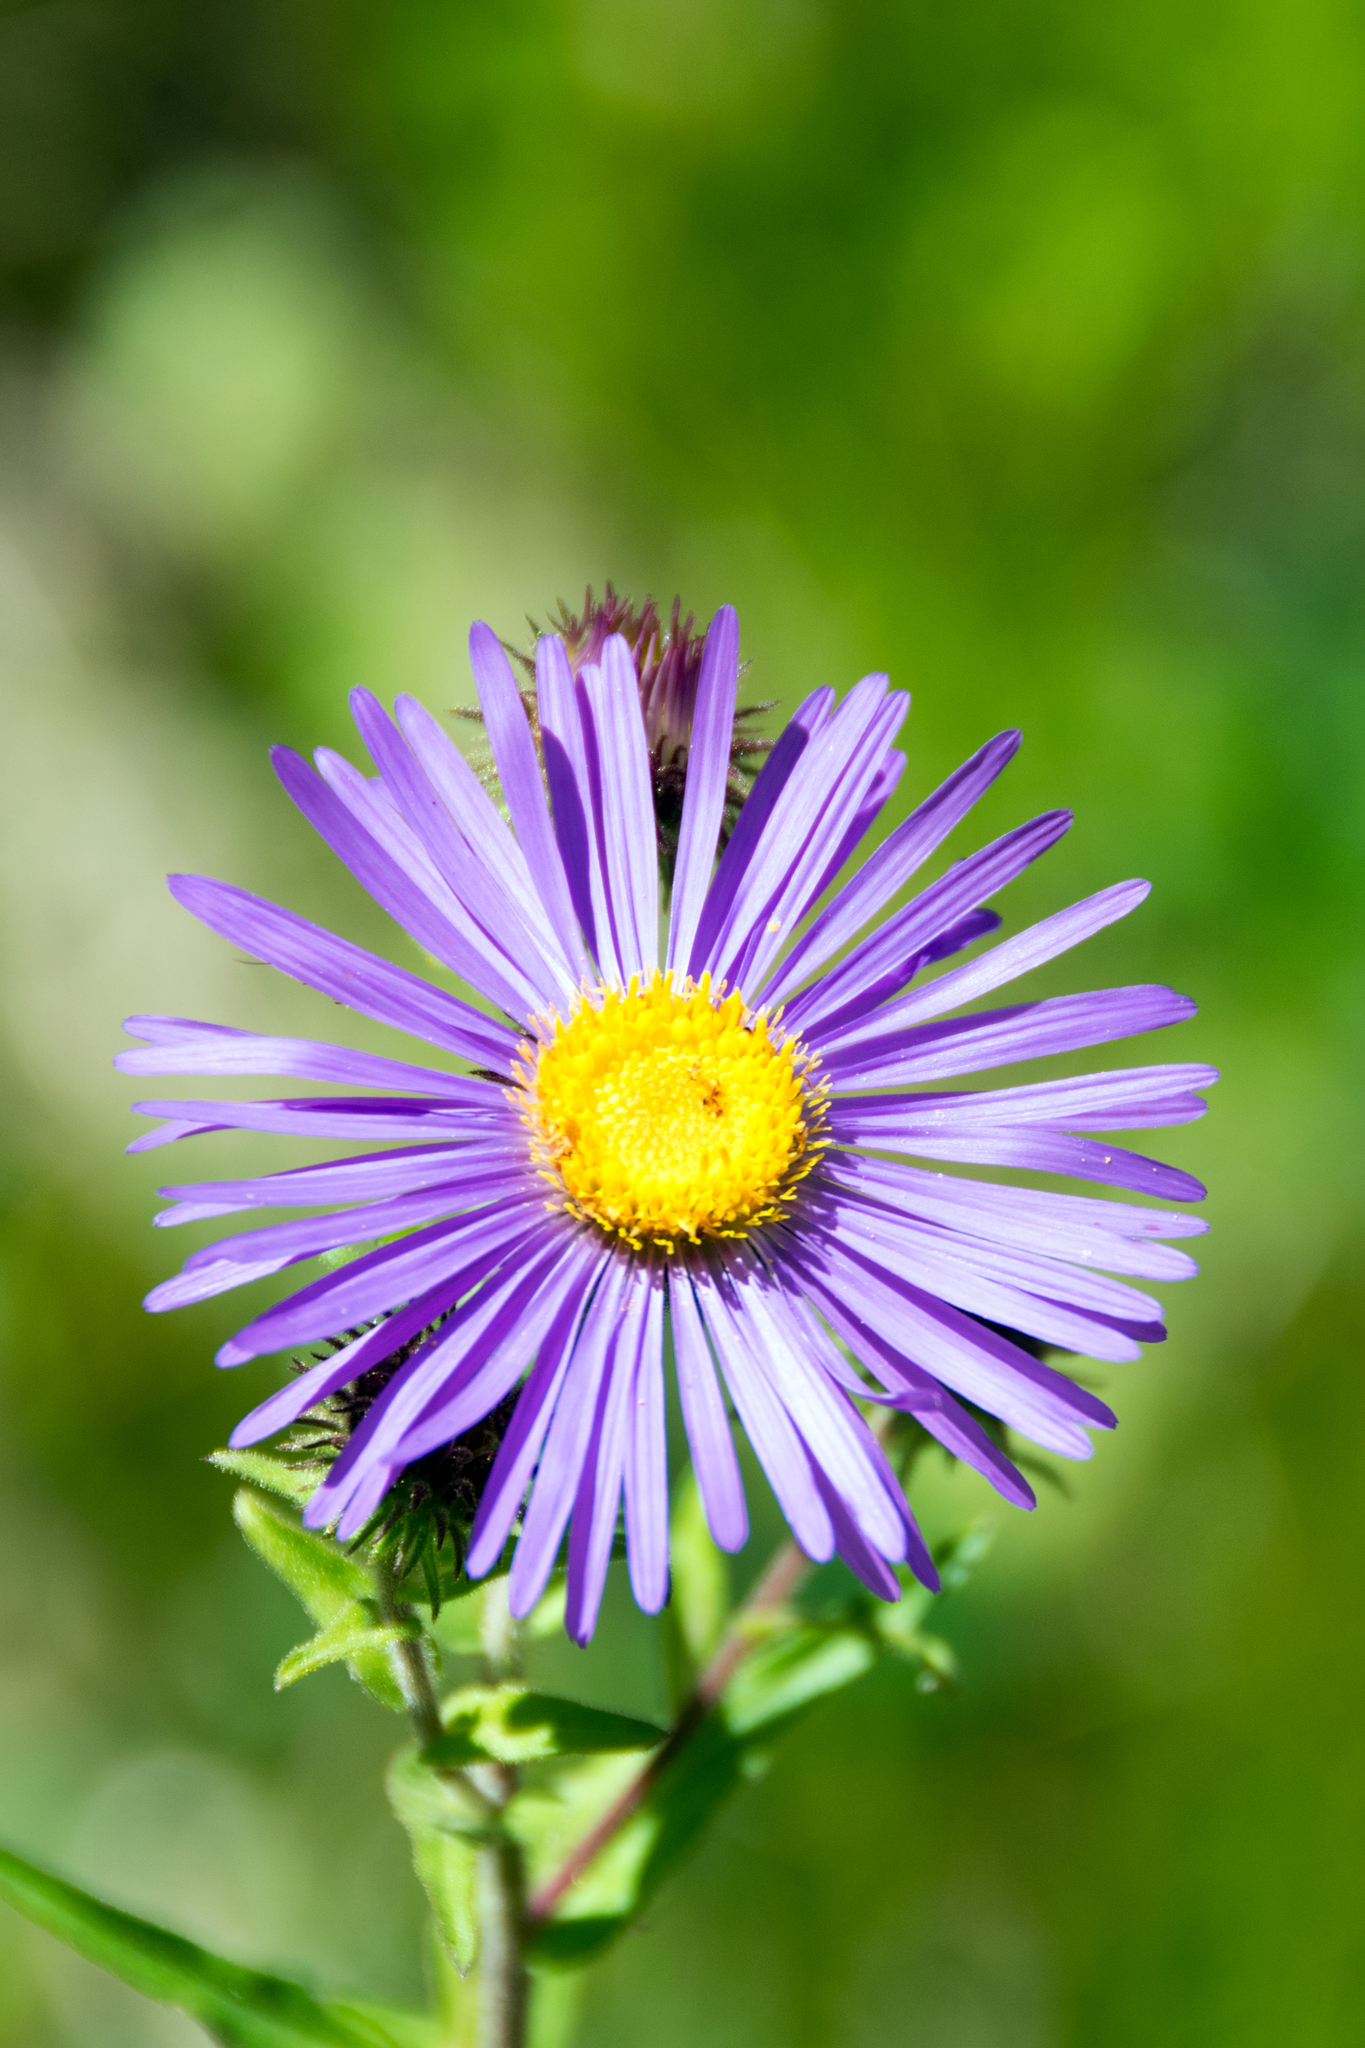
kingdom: Plantae
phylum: Tracheophyta
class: Magnoliopsida
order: Asterales
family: Asteraceae
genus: Erigeron
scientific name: Erigeron speciosus
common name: Aspen fleabane
